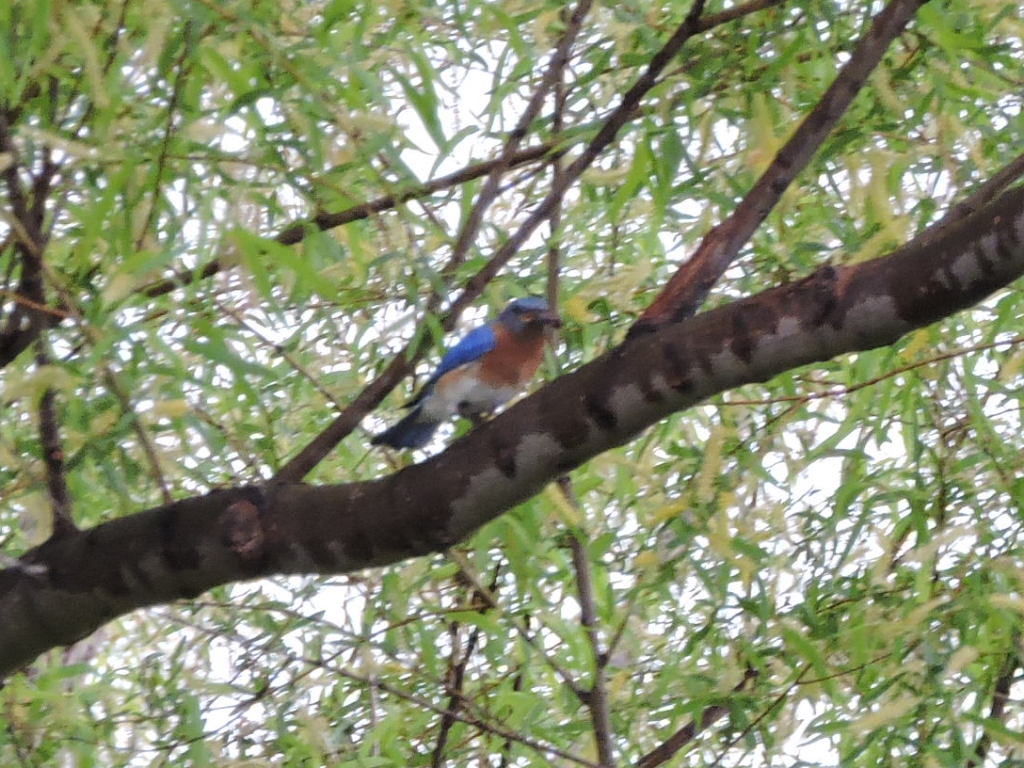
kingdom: Animalia
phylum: Chordata
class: Aves
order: Passeriformes
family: Turdidae
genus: Sialia
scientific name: Sialia sialis
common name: Eastern bluebird
